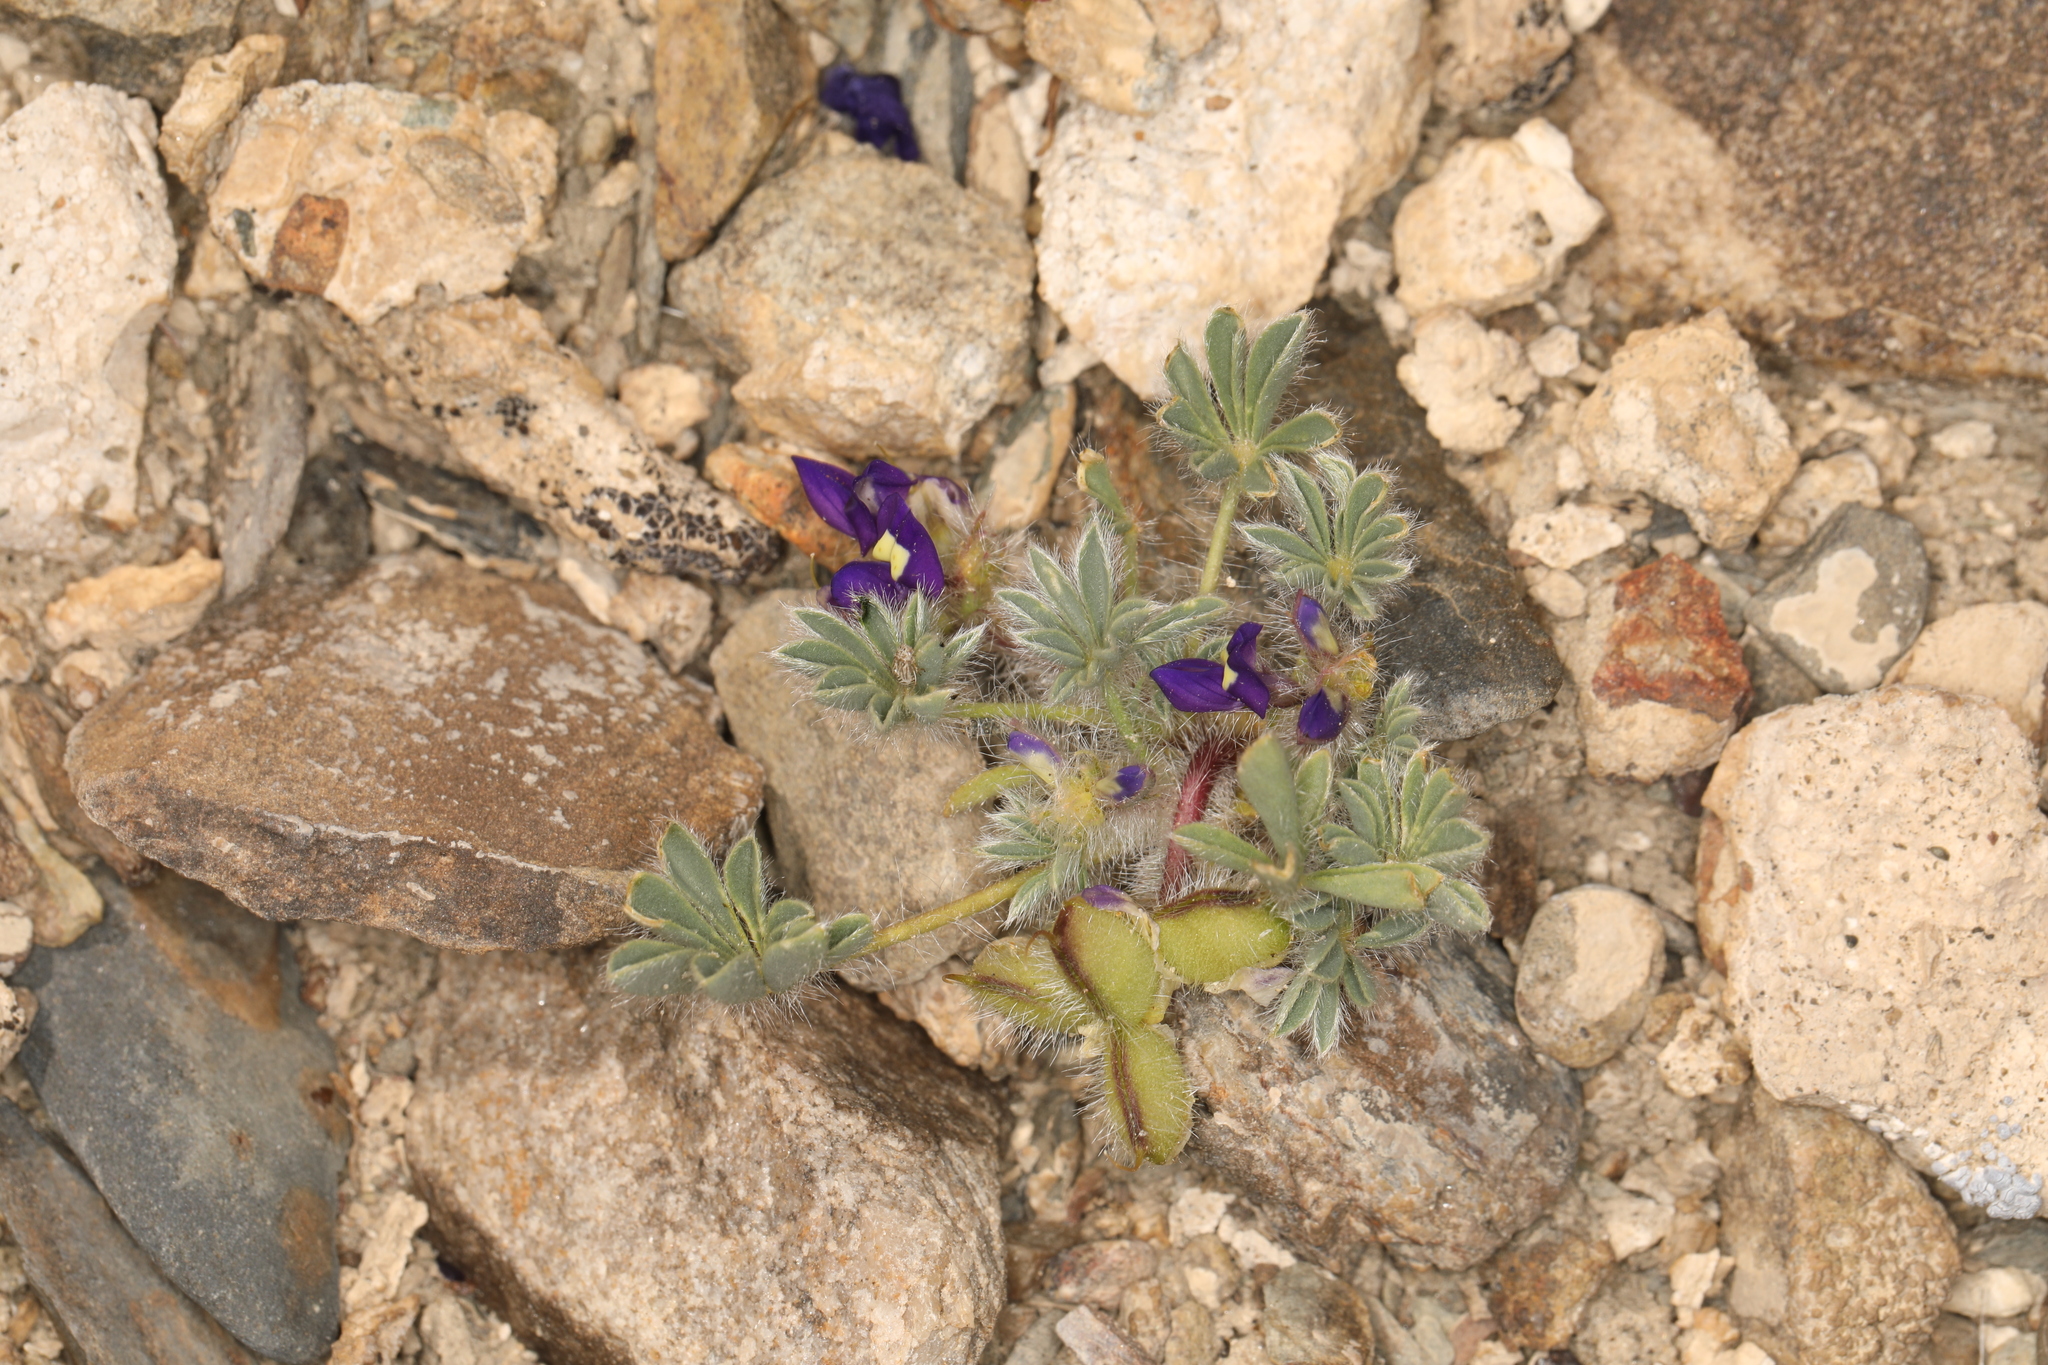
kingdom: Plantae
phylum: Tracheophyta
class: Magnoliopsida
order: Fabales
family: Fabaceae
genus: Lupinus
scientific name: Lupinus flavoculatus
